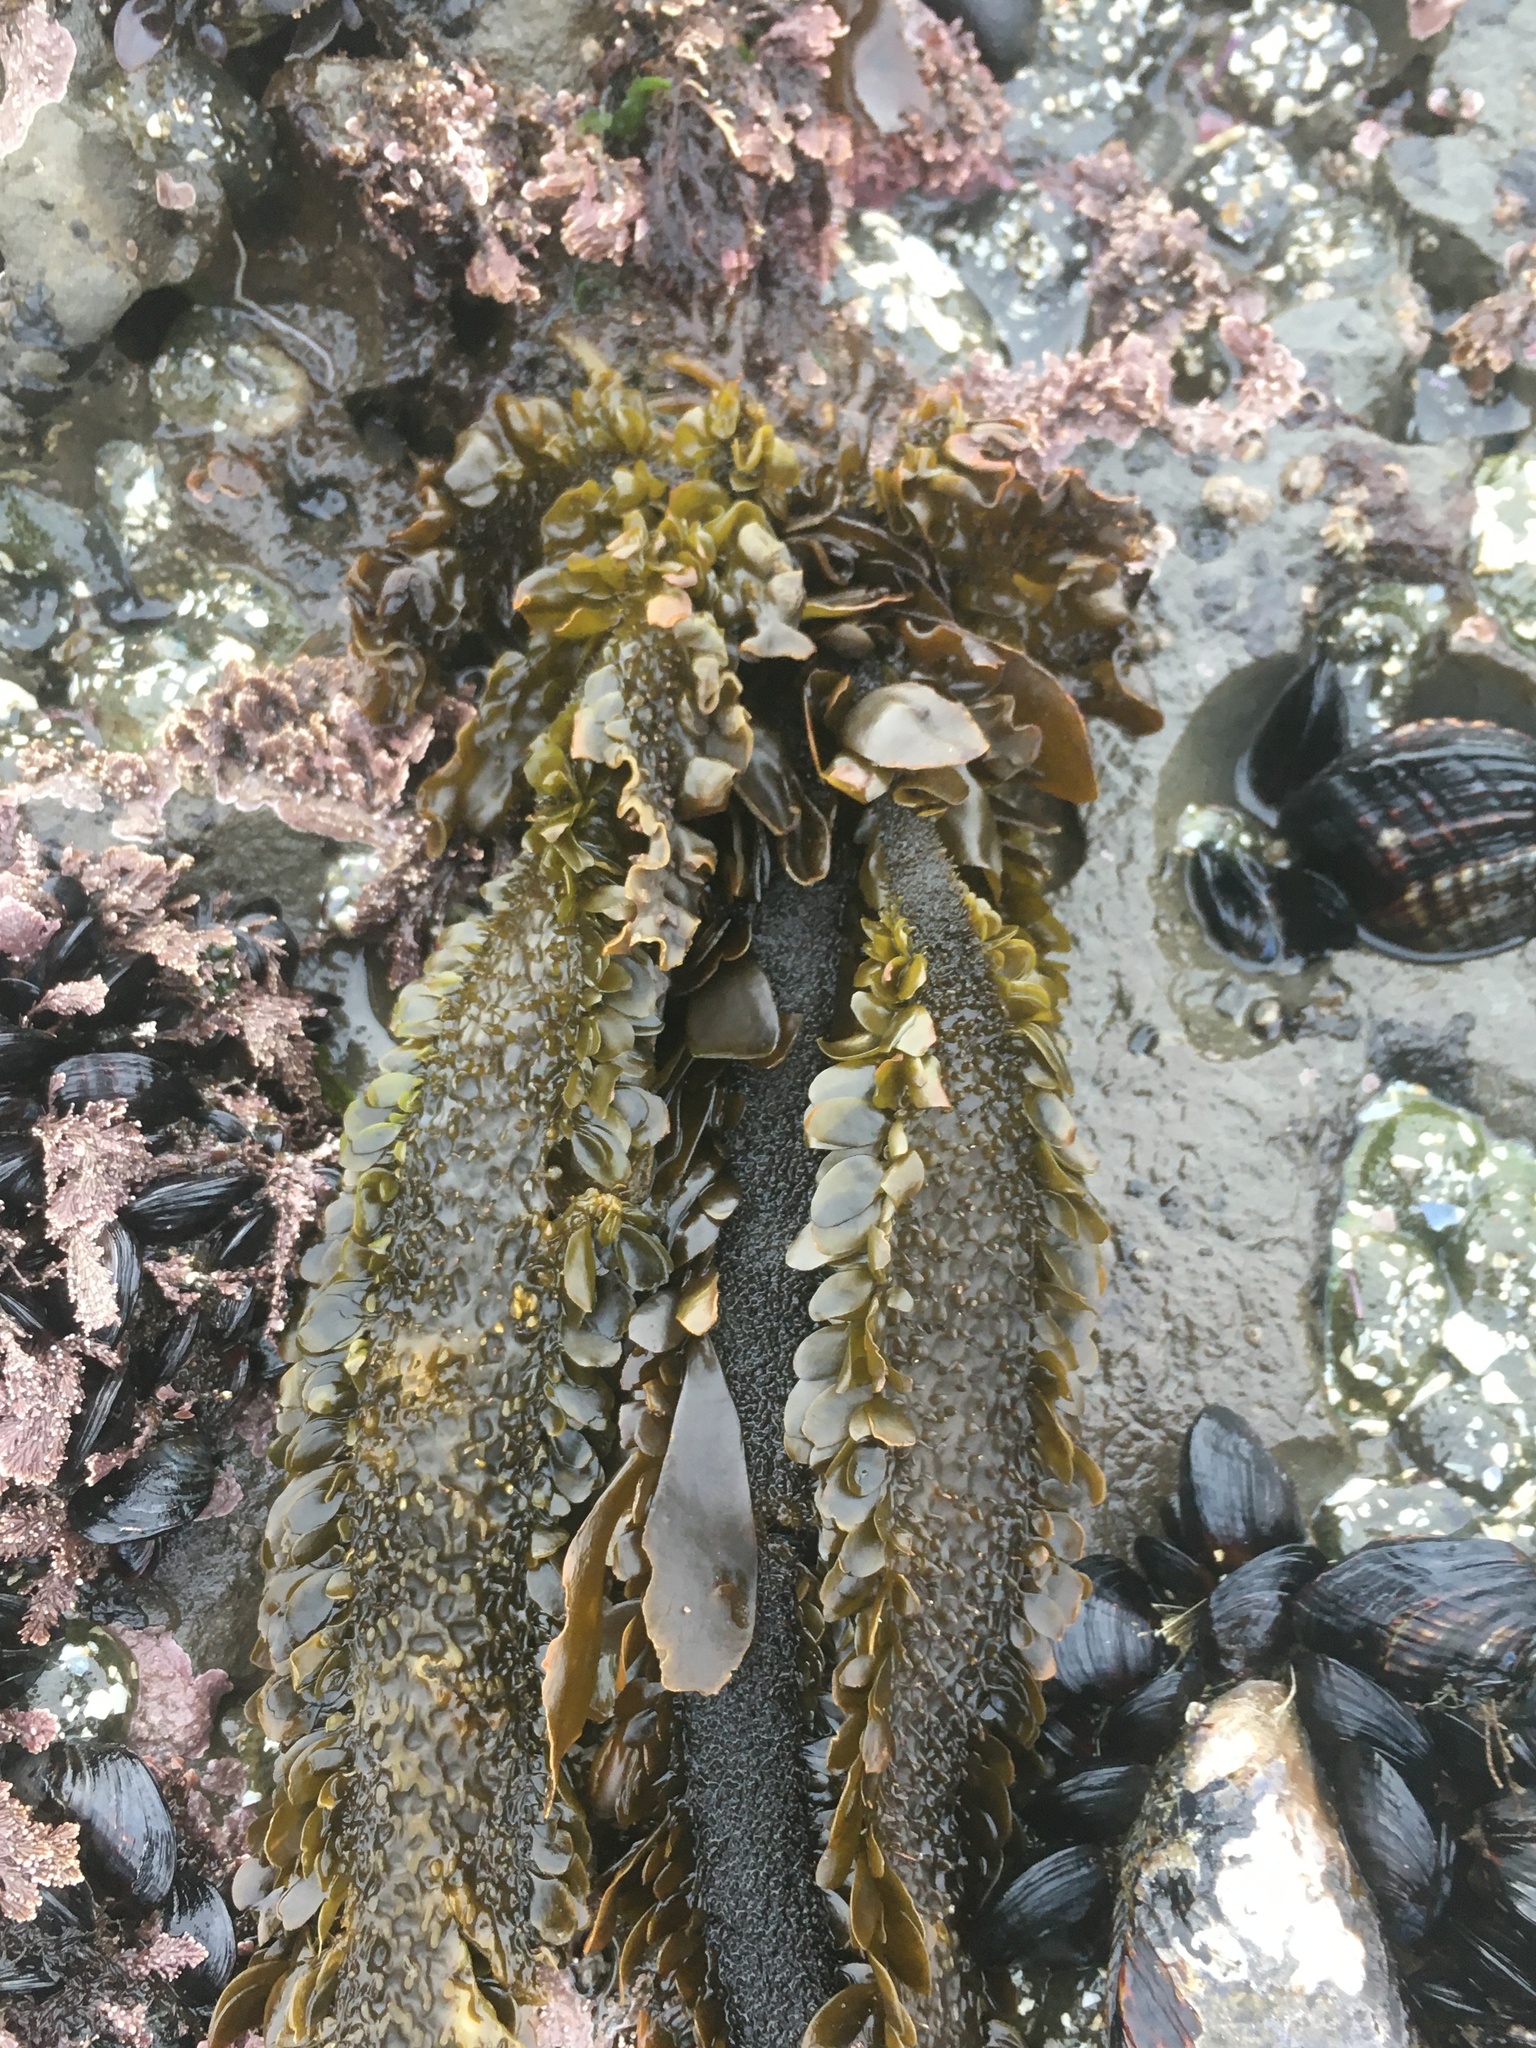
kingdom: Chromista
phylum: Ochrophyta
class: Phaeophyceae
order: Laminariales
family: Lessoniaceae
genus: Egregia
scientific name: Egregia menziesii
